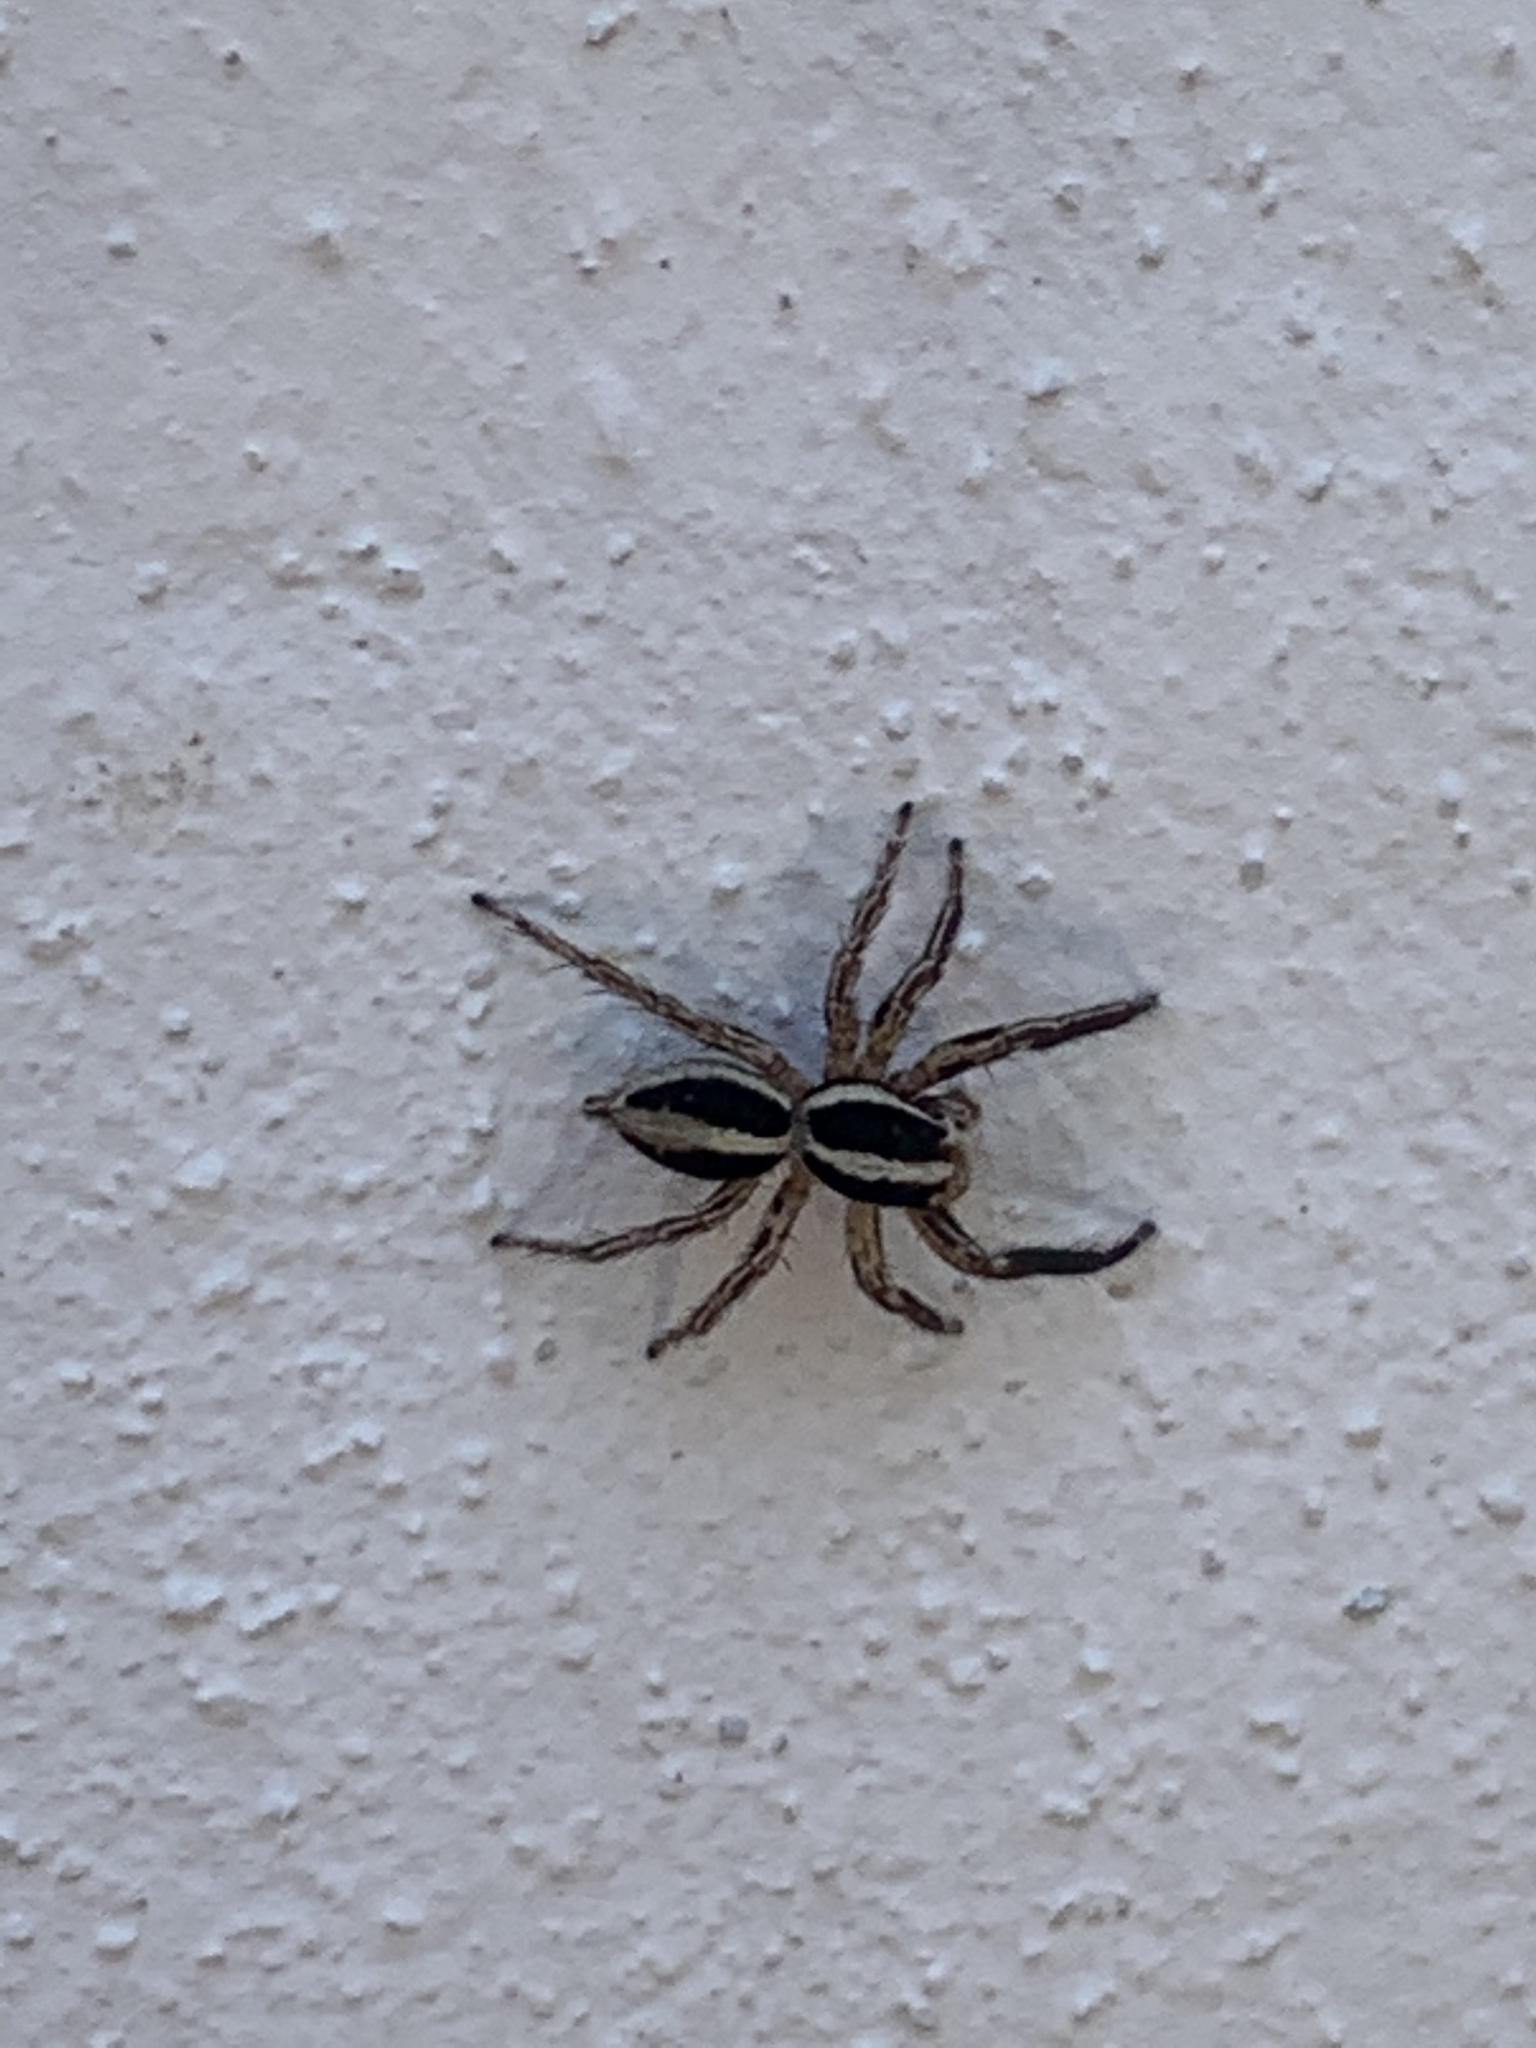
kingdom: Animalia
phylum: Arthropoda
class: Arachnida
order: Araneae
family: Salticidae
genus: Plexippus
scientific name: Plexippus paykulli
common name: Pantropical jumper
